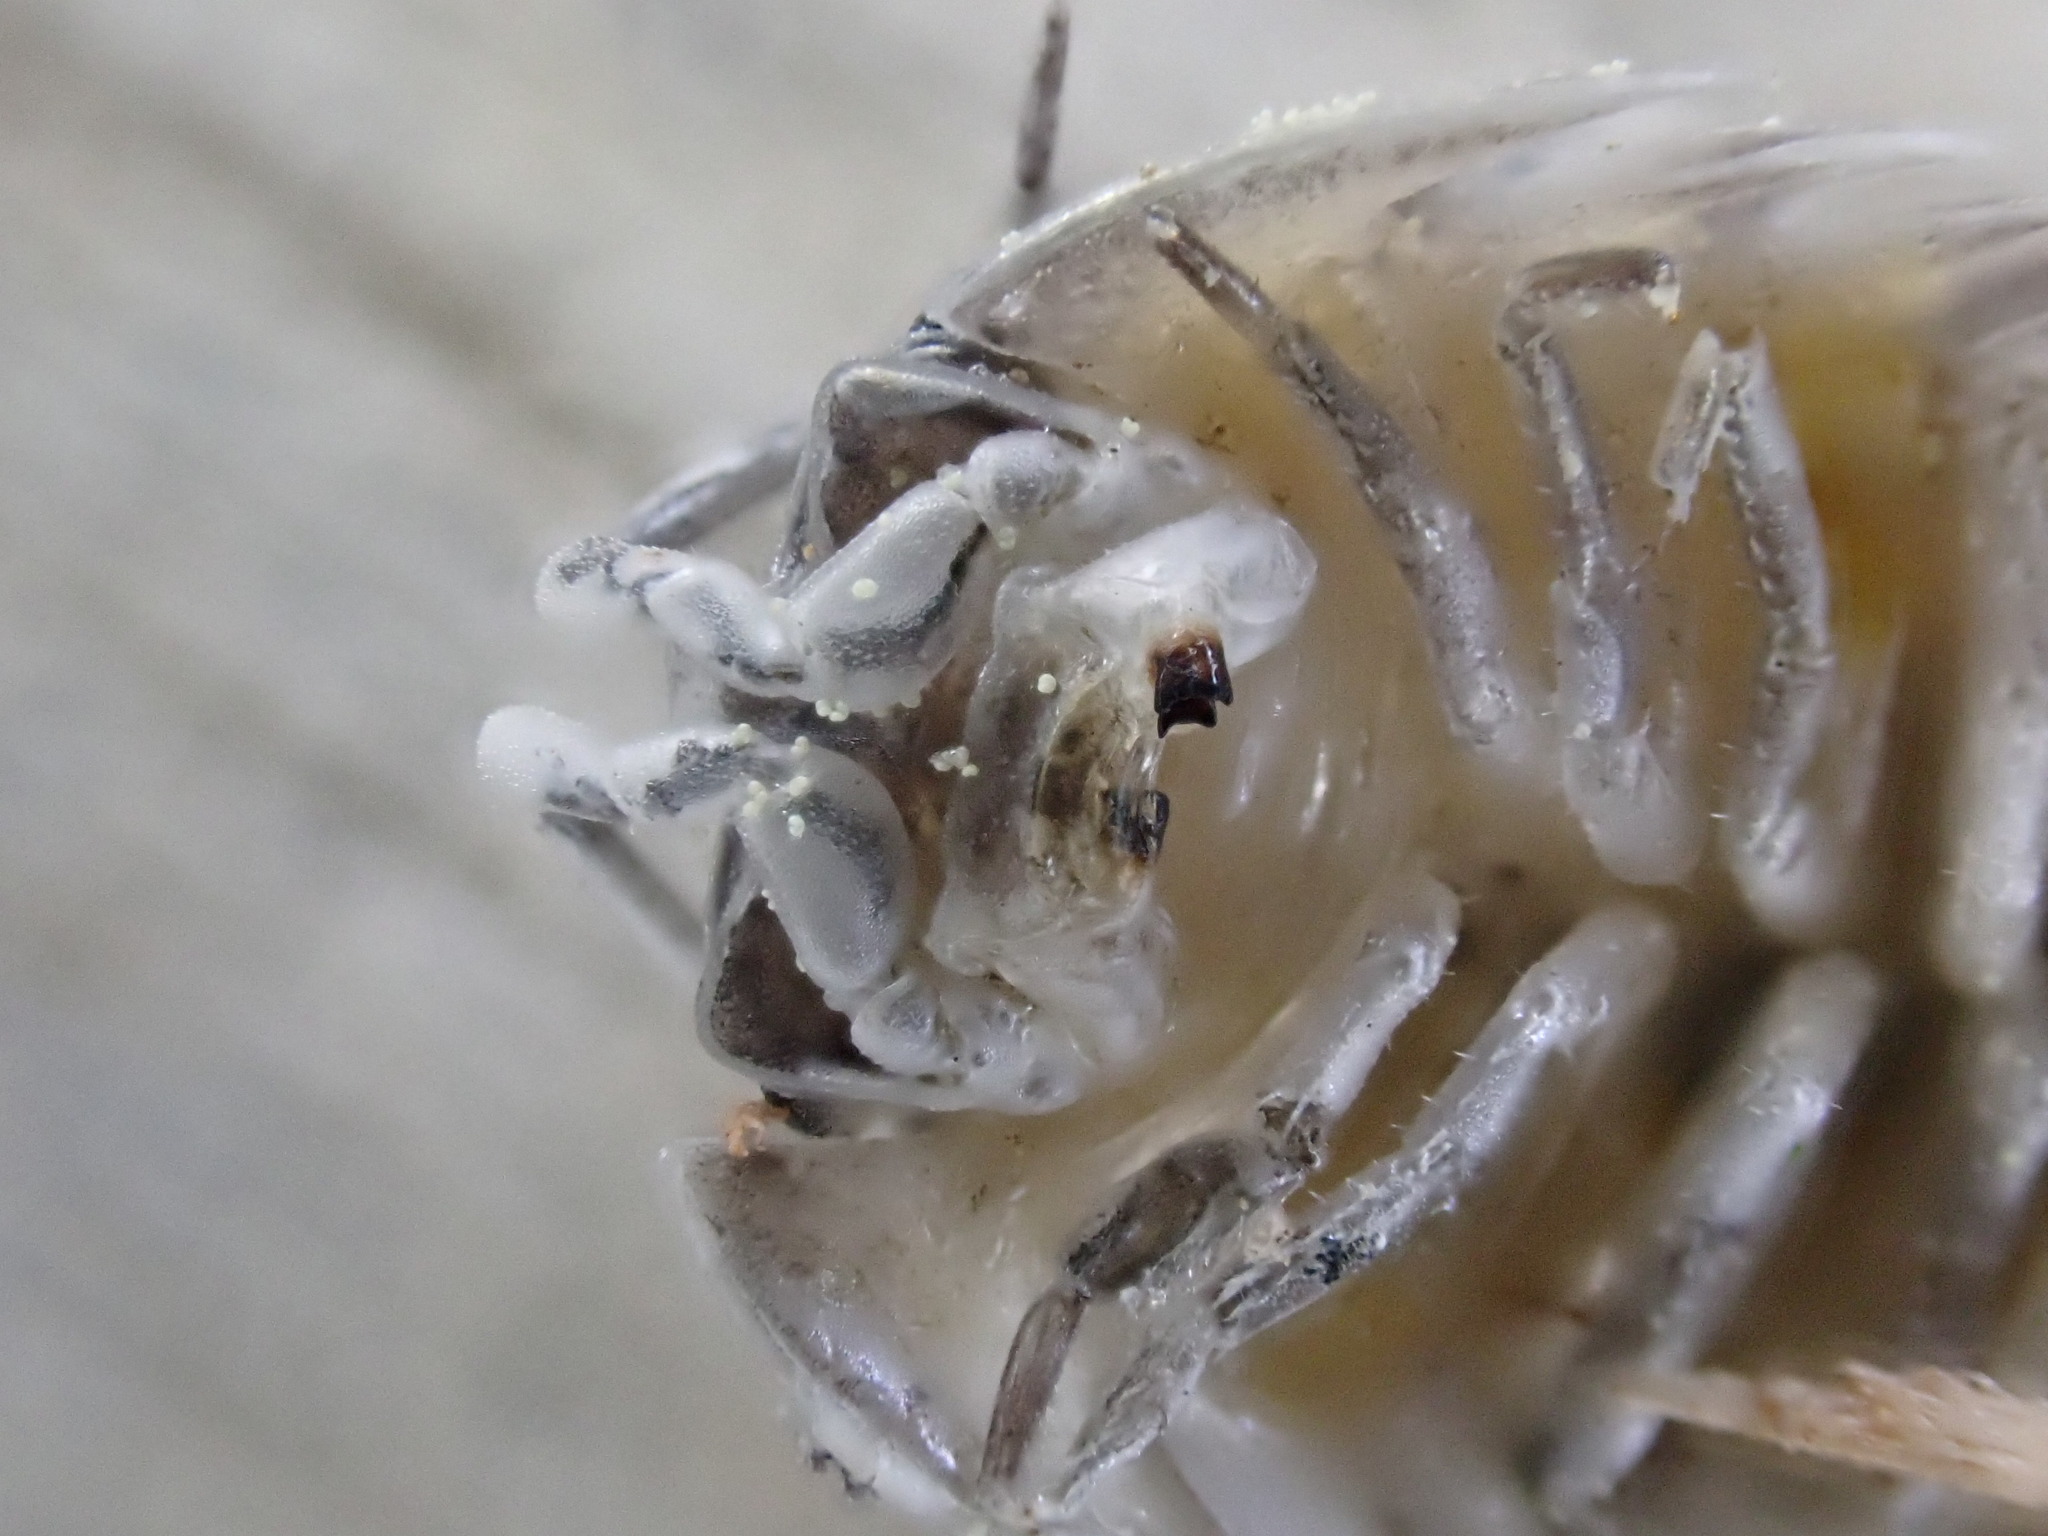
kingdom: Animalia
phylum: Arthropoda
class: Malacostraca
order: Isopoda
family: Armadillidiidae
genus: Armadillidium
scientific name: Armadillidium nasatum
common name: Isopod
